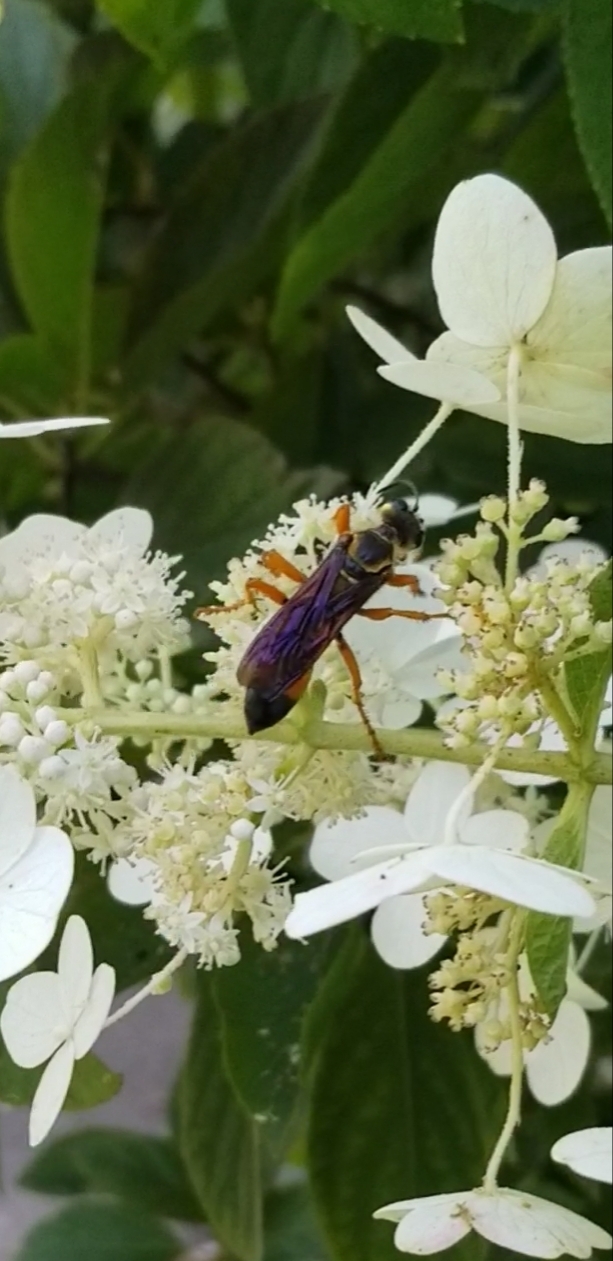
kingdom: Animalia
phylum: Arthropoda
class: Insecta
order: Hymenoptera
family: Sphecidae
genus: Sphex
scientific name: Sphex ichneumoneus
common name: Great golden digger wasp
